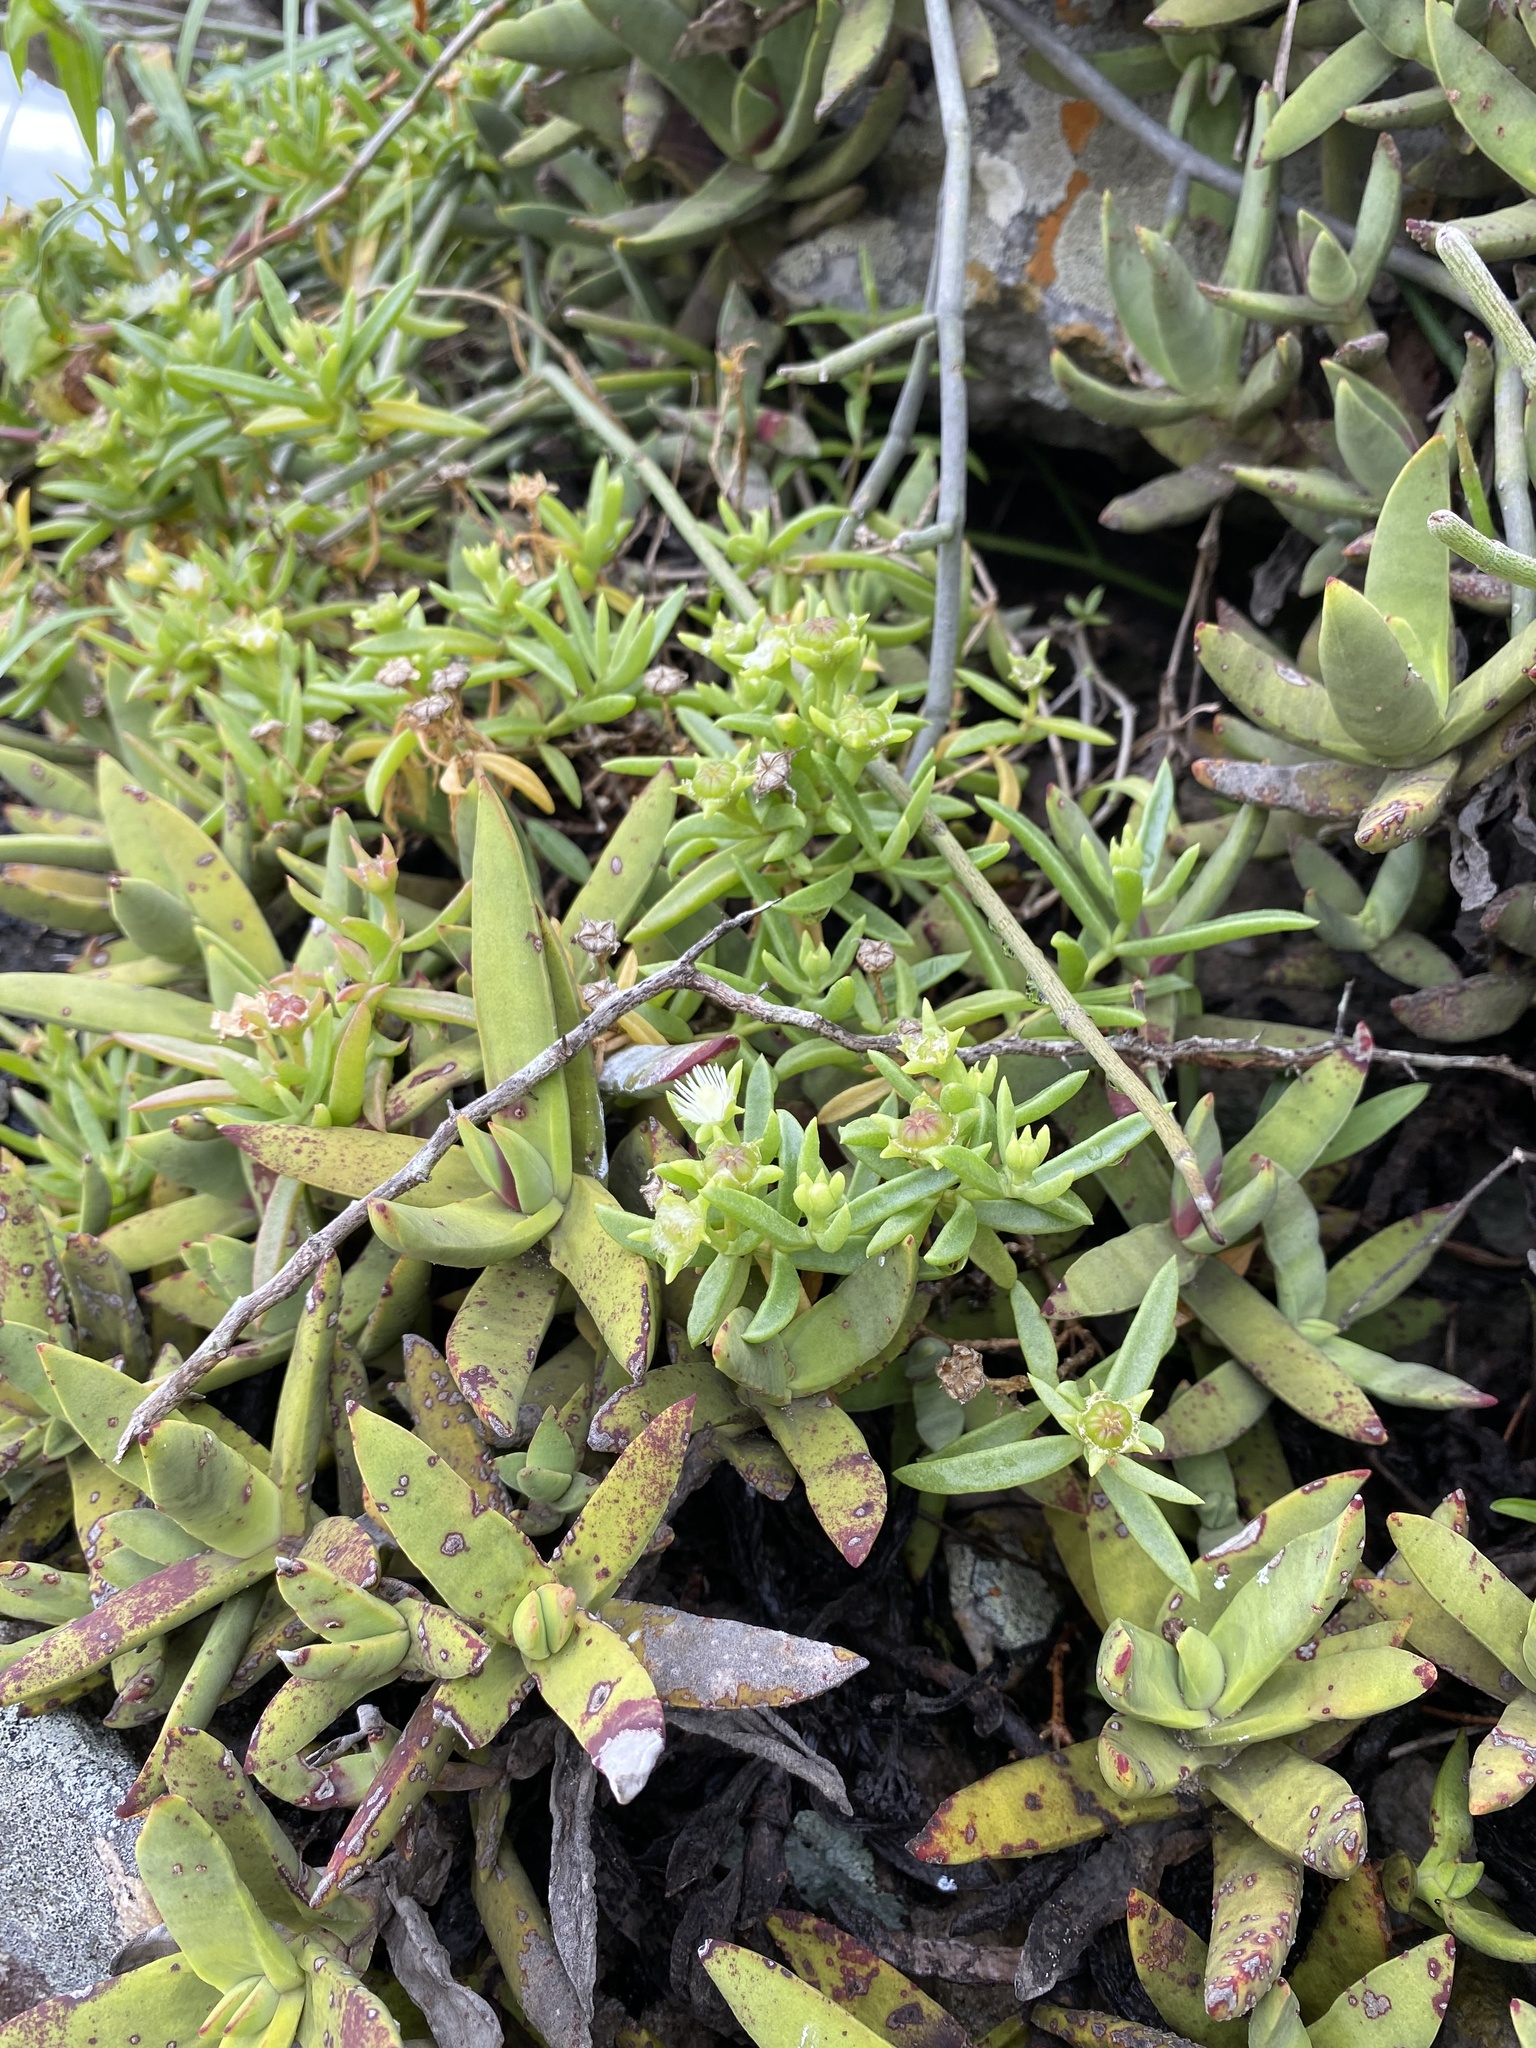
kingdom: Plantae
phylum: Tracheophyta
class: Magnoliopsida
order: Saxifragales
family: Crassulaceae
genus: Crassula
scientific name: Crassula perfoliata
